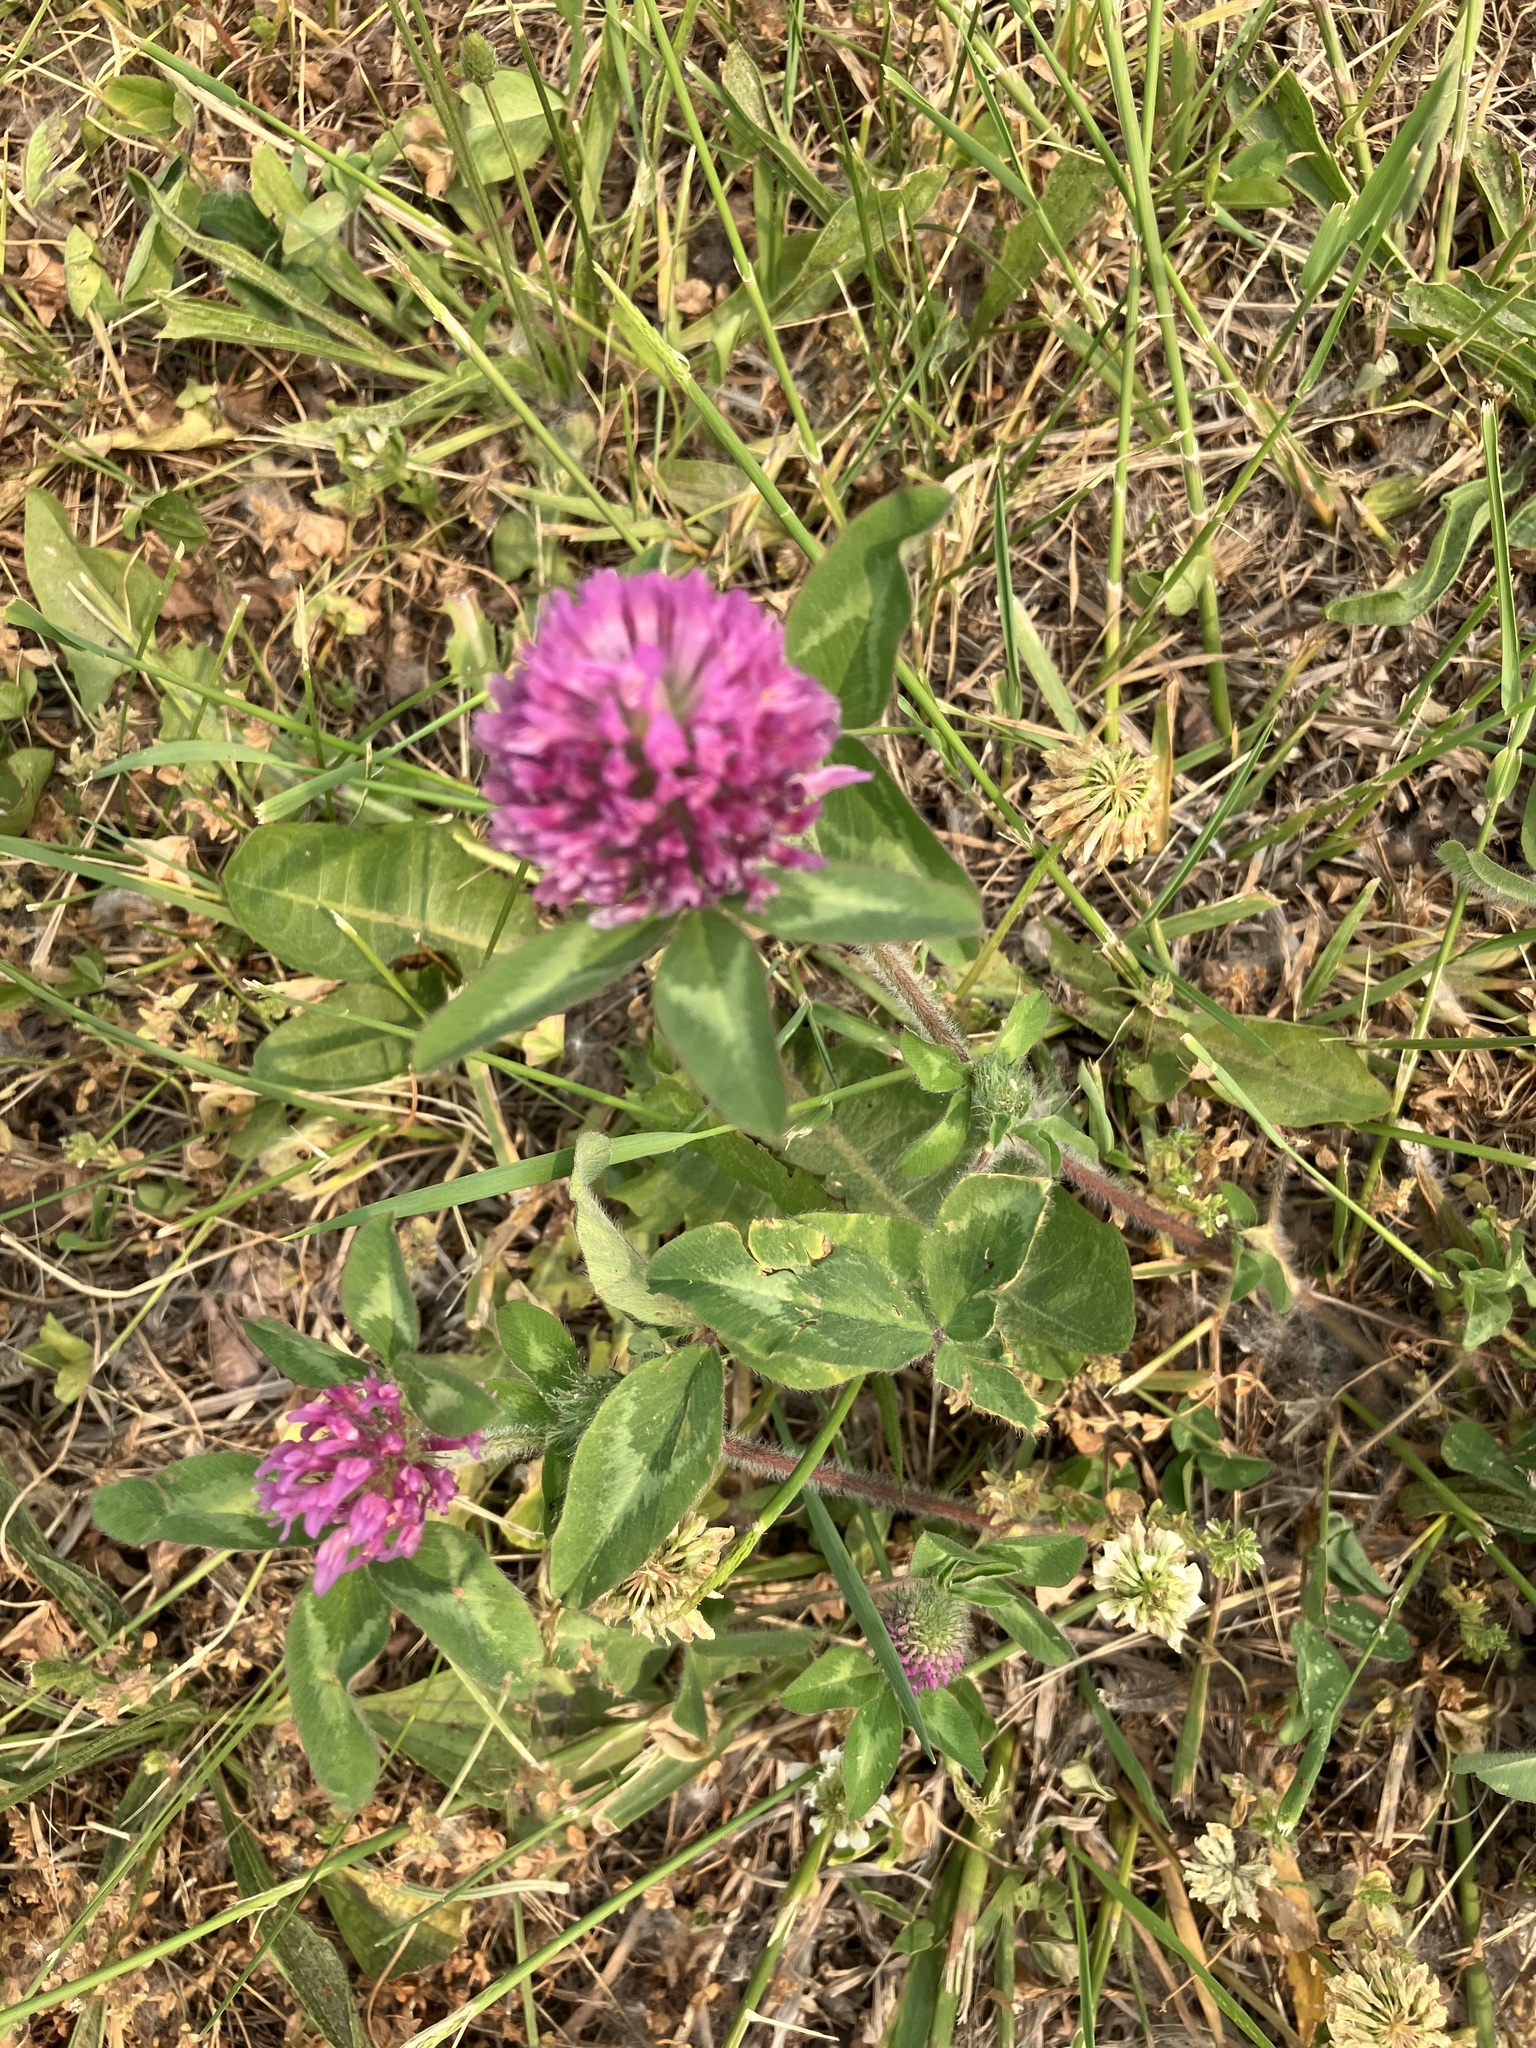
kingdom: Plantae
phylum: Tracheophyta
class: Magnoliopsida
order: Fabales
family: Fabaceae
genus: Trifolium
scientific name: Trifolium pratense
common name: Red clover
